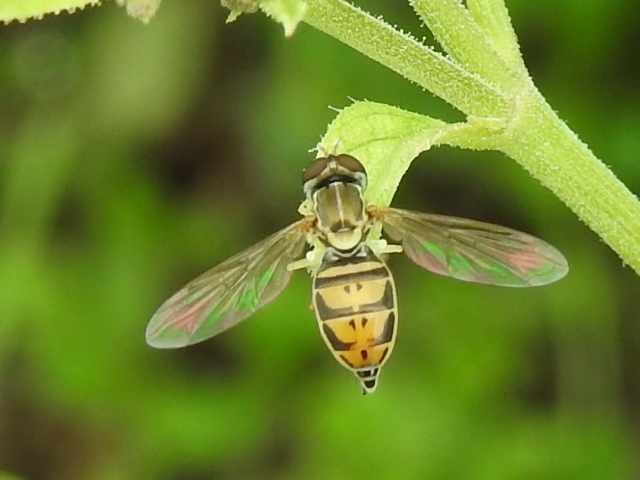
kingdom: Animalia
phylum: Arthropoda
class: Insecta
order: Diptera
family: Syrphidae
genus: Toxomerus
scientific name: Toxomerus marginatus
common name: Syrphid fly
